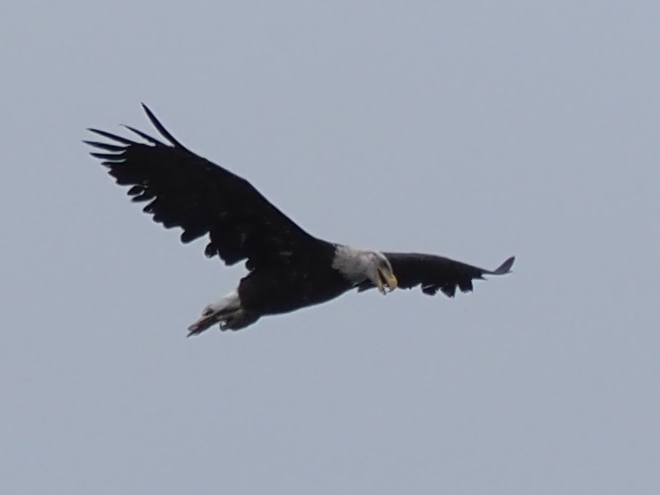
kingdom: Animalia
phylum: Chordata
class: Aves
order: Accipitriformes
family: Accipitridae
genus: Haliaeetus
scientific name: Haliaeetus leucocephalus
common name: Bald eagle
